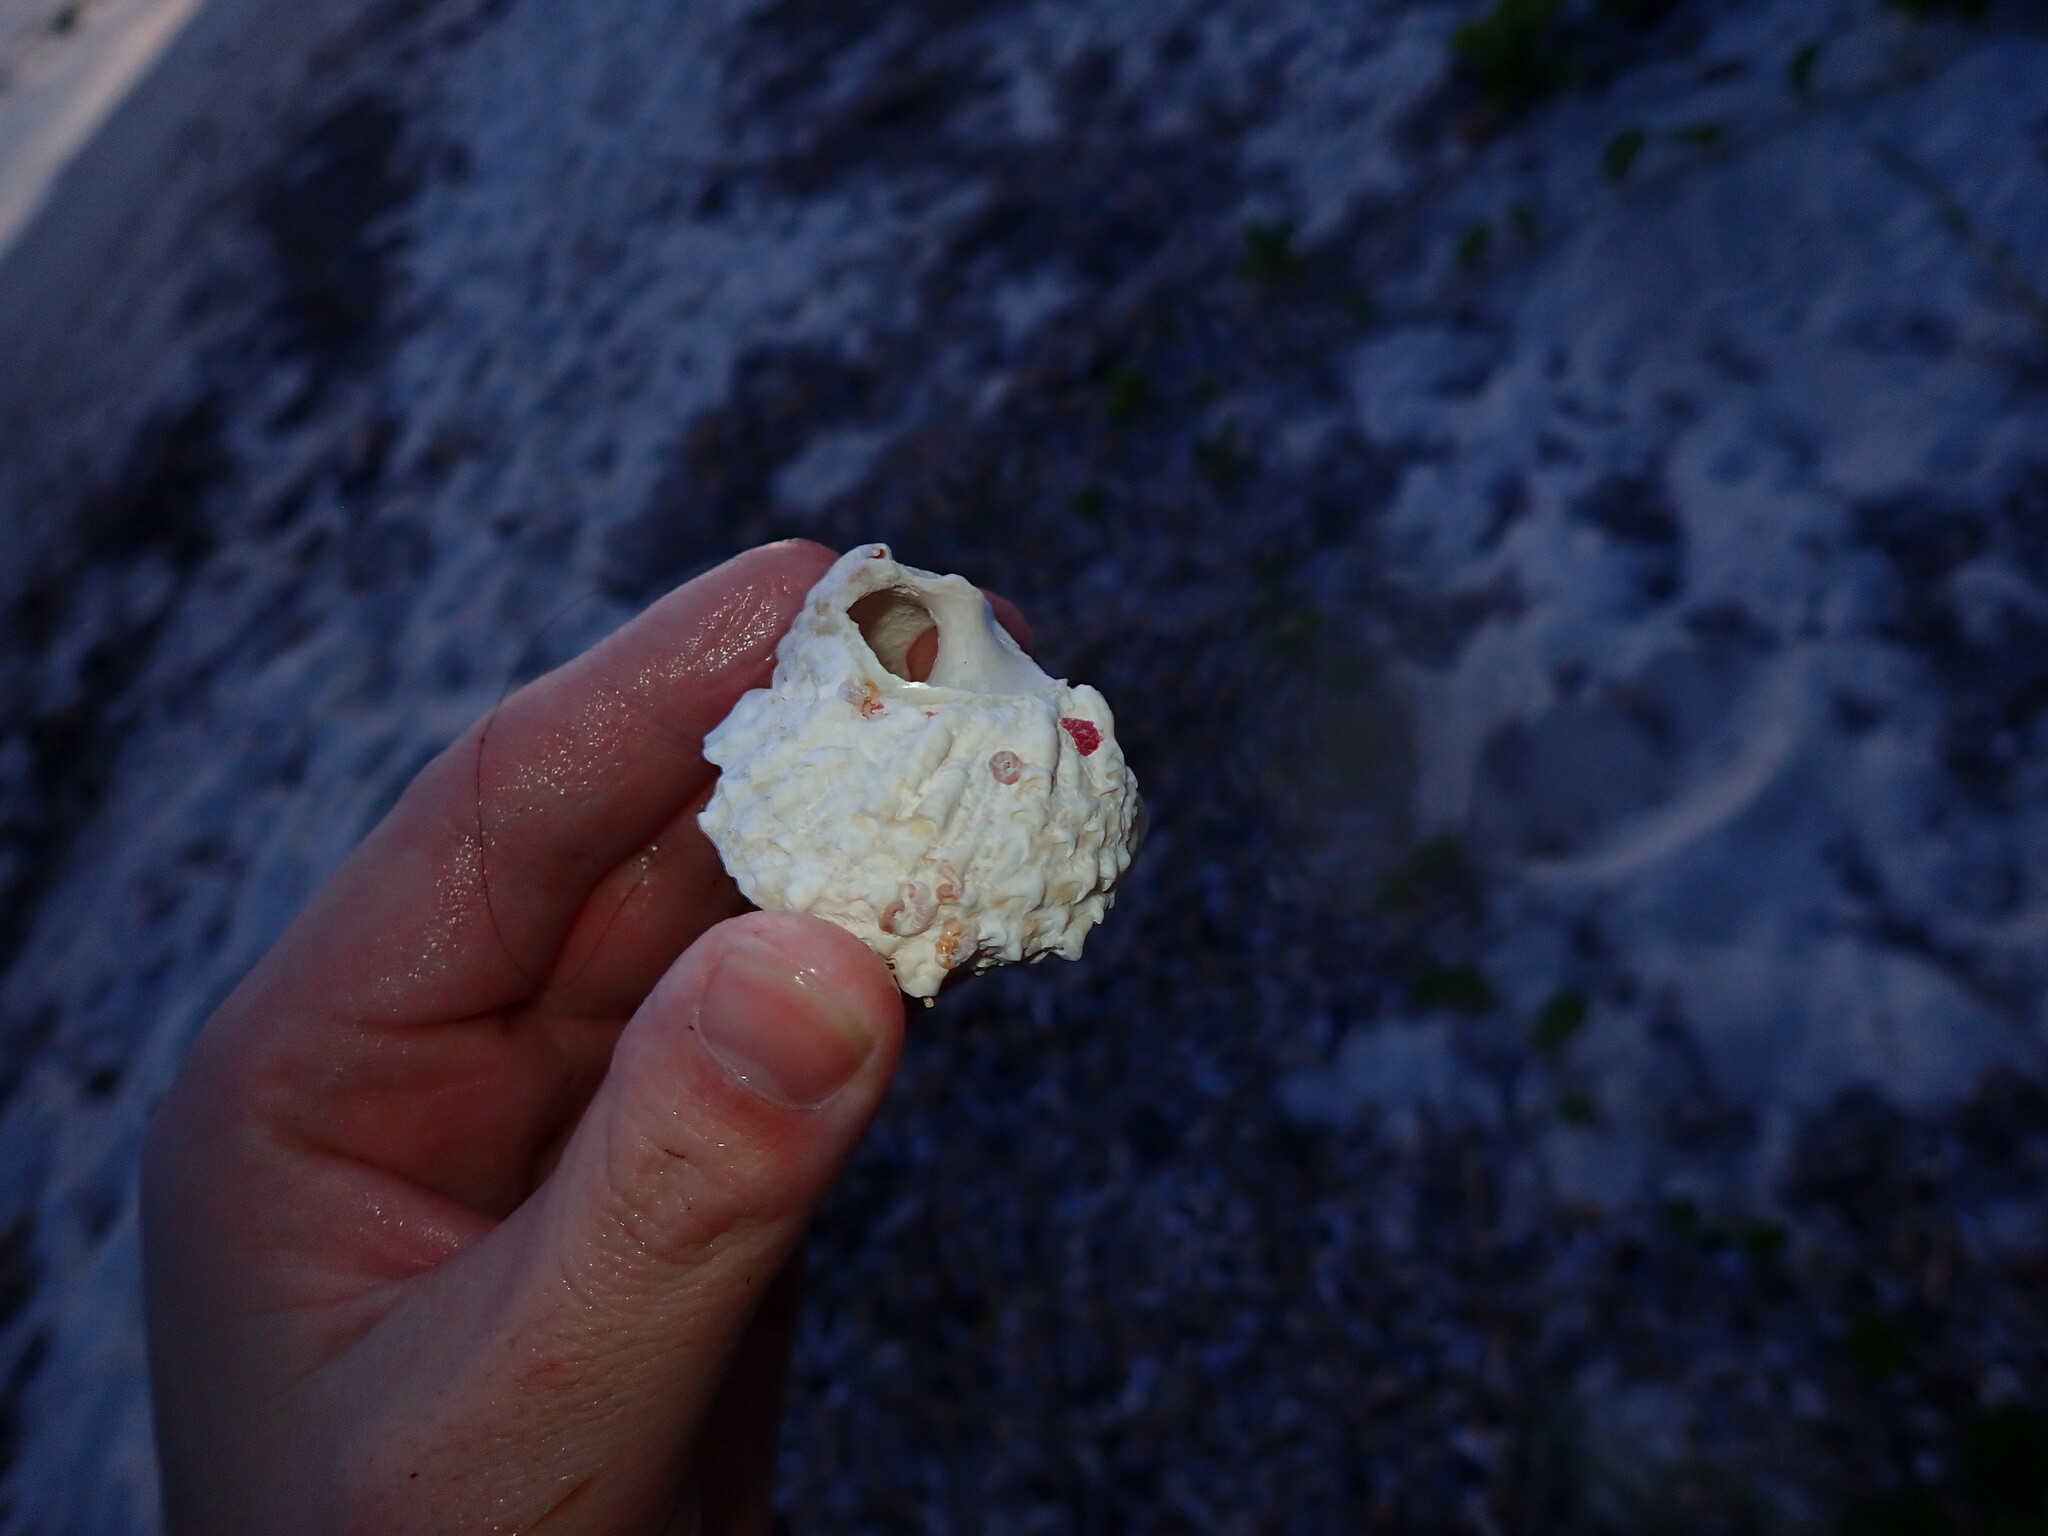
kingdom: Animalia
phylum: Mollusca
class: Gastropoda
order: Trochida
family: Turbinidae
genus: Lithopoma
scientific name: Lithopoma caelatum
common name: Carved starsnail
